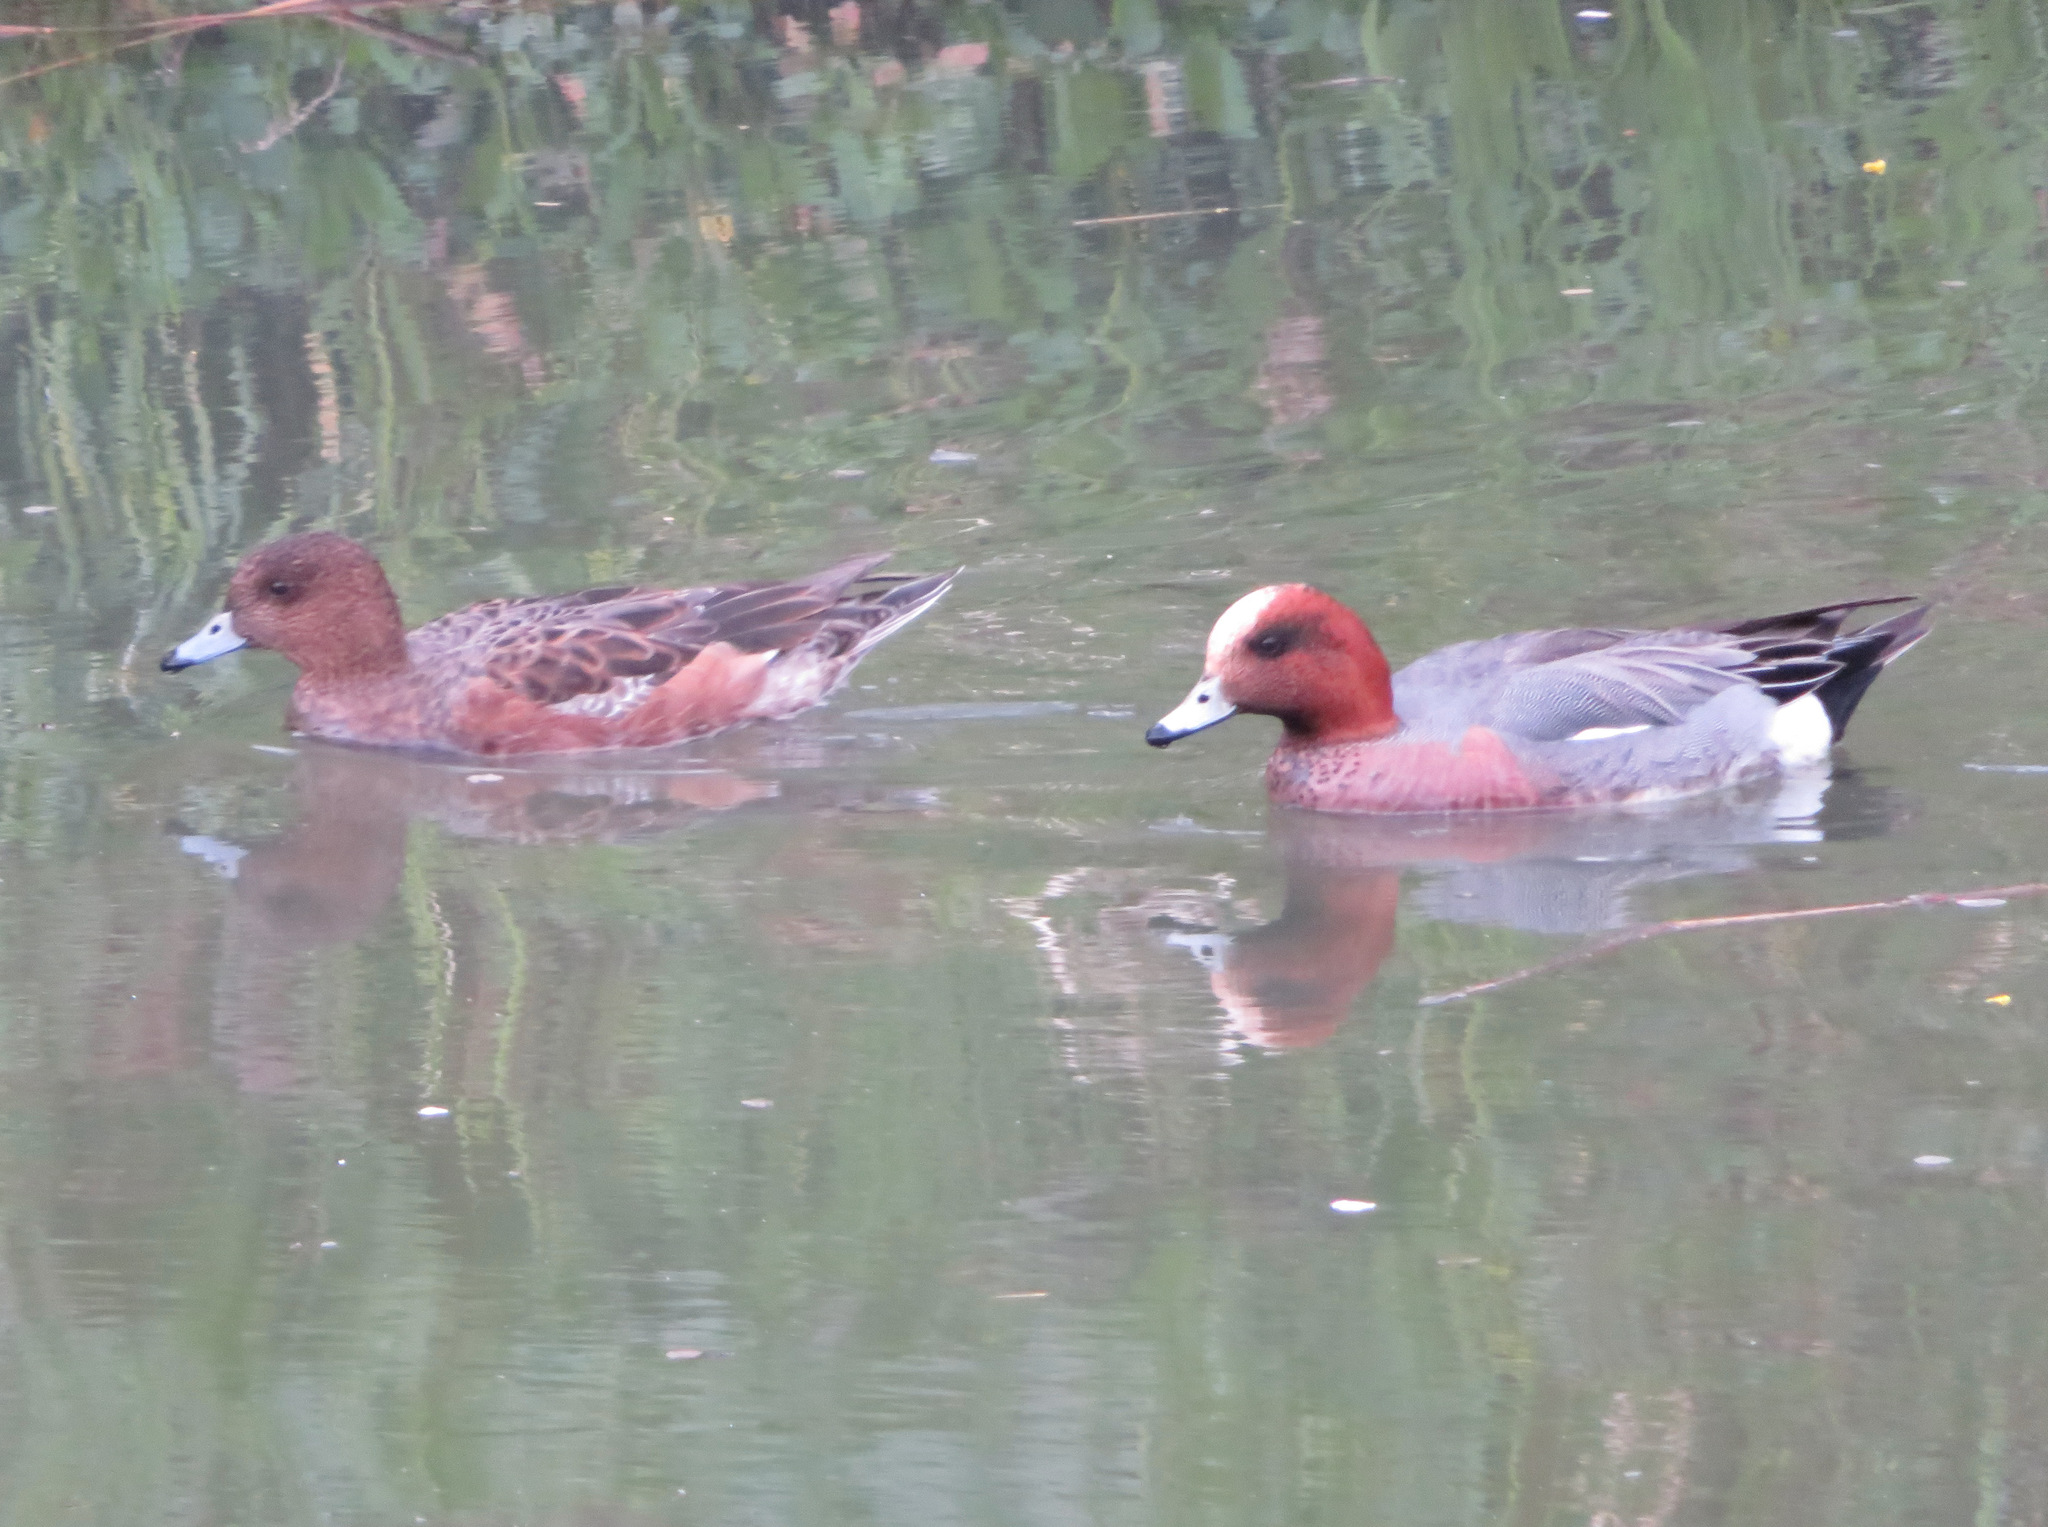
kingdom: Animalia
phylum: Chordata
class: Aves
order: Anseriformes
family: Anatidae
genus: Mareca
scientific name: Mareca penelope
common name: Eurasian wigeon
